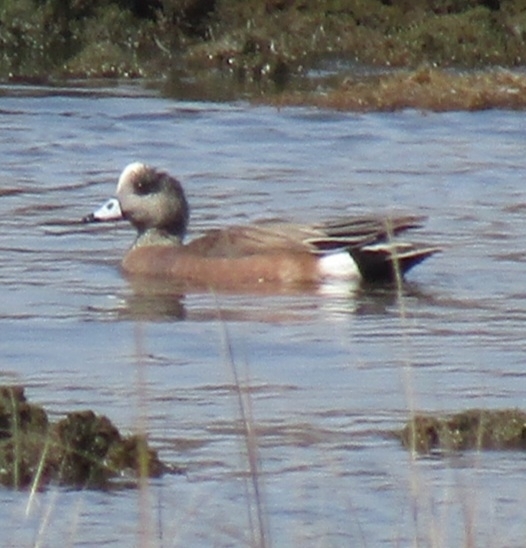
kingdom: Animalia
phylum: Chordata
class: Aves
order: Anseriformes
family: Anatidae
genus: Mareca
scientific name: Mareca americana
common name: American wigeon
